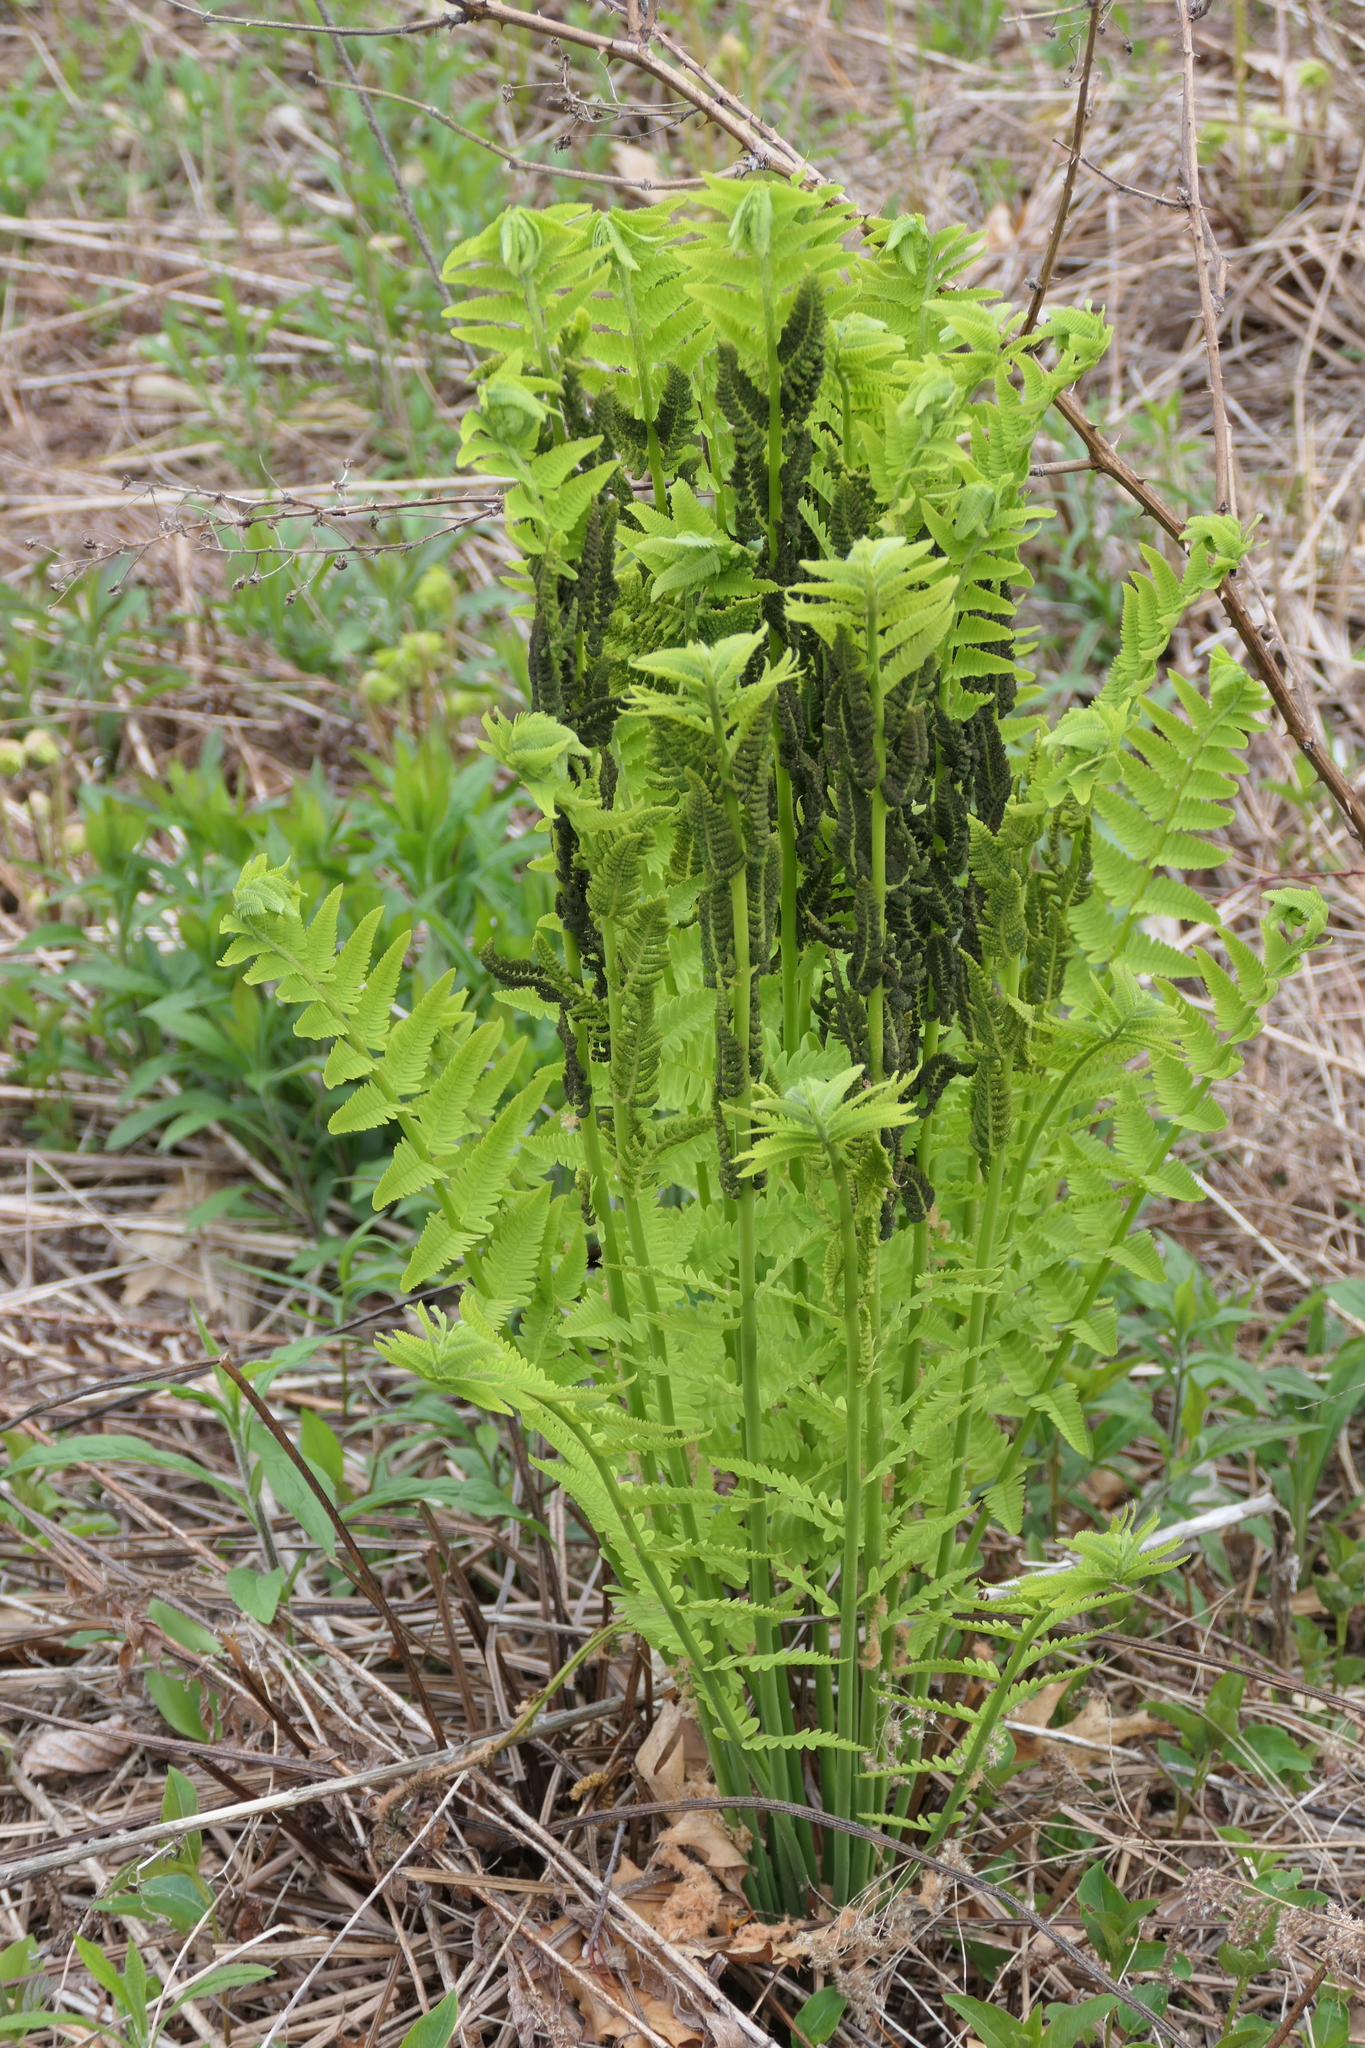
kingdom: Plantae
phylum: Tracheophyta
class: Polypodiopsida
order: Osmundales
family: Osmundaceae
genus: Claytosmunda
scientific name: Claytosmunda claytoniana
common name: Clayton's fern
